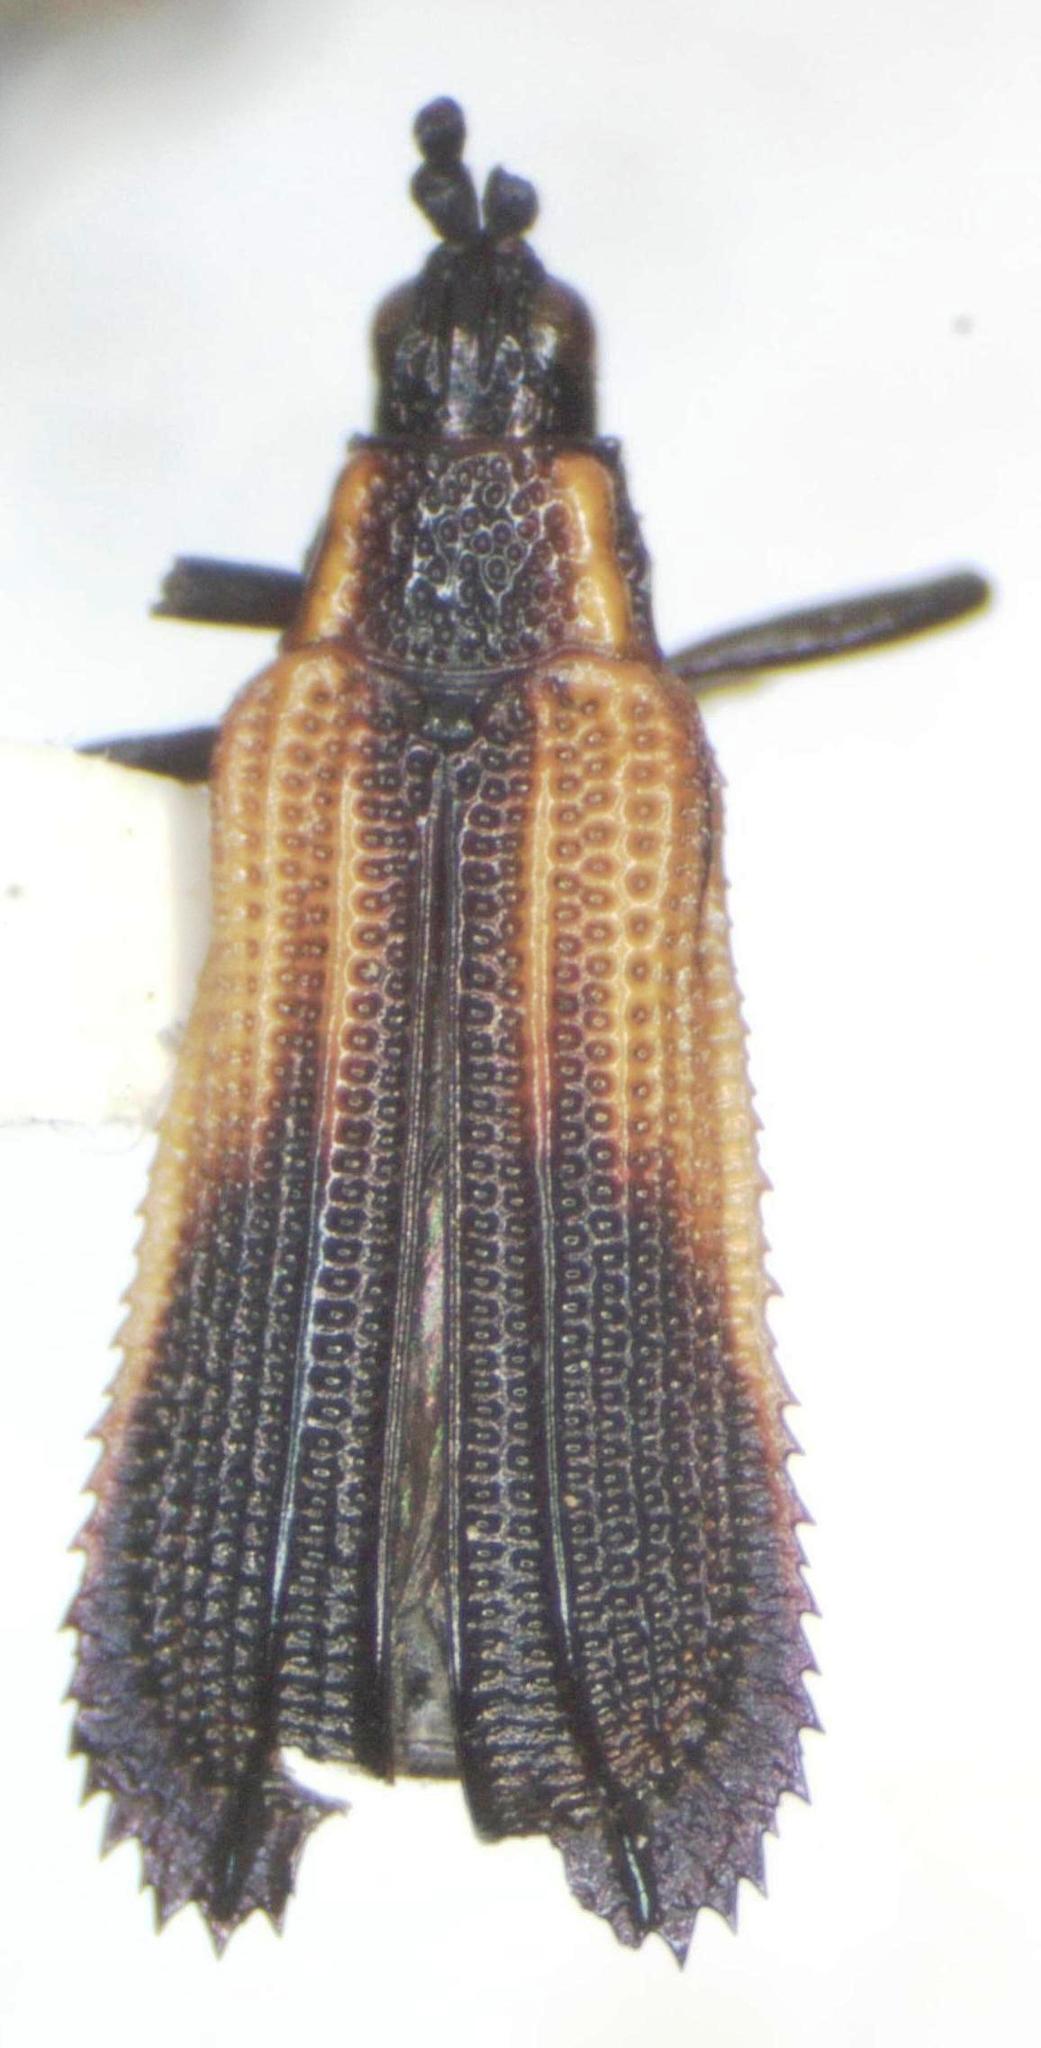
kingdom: Animalia
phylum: Arthropoda
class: Insecta
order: Coleoptera
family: Chrysomelidae
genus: Pentispa
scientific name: Pentispa explanata
